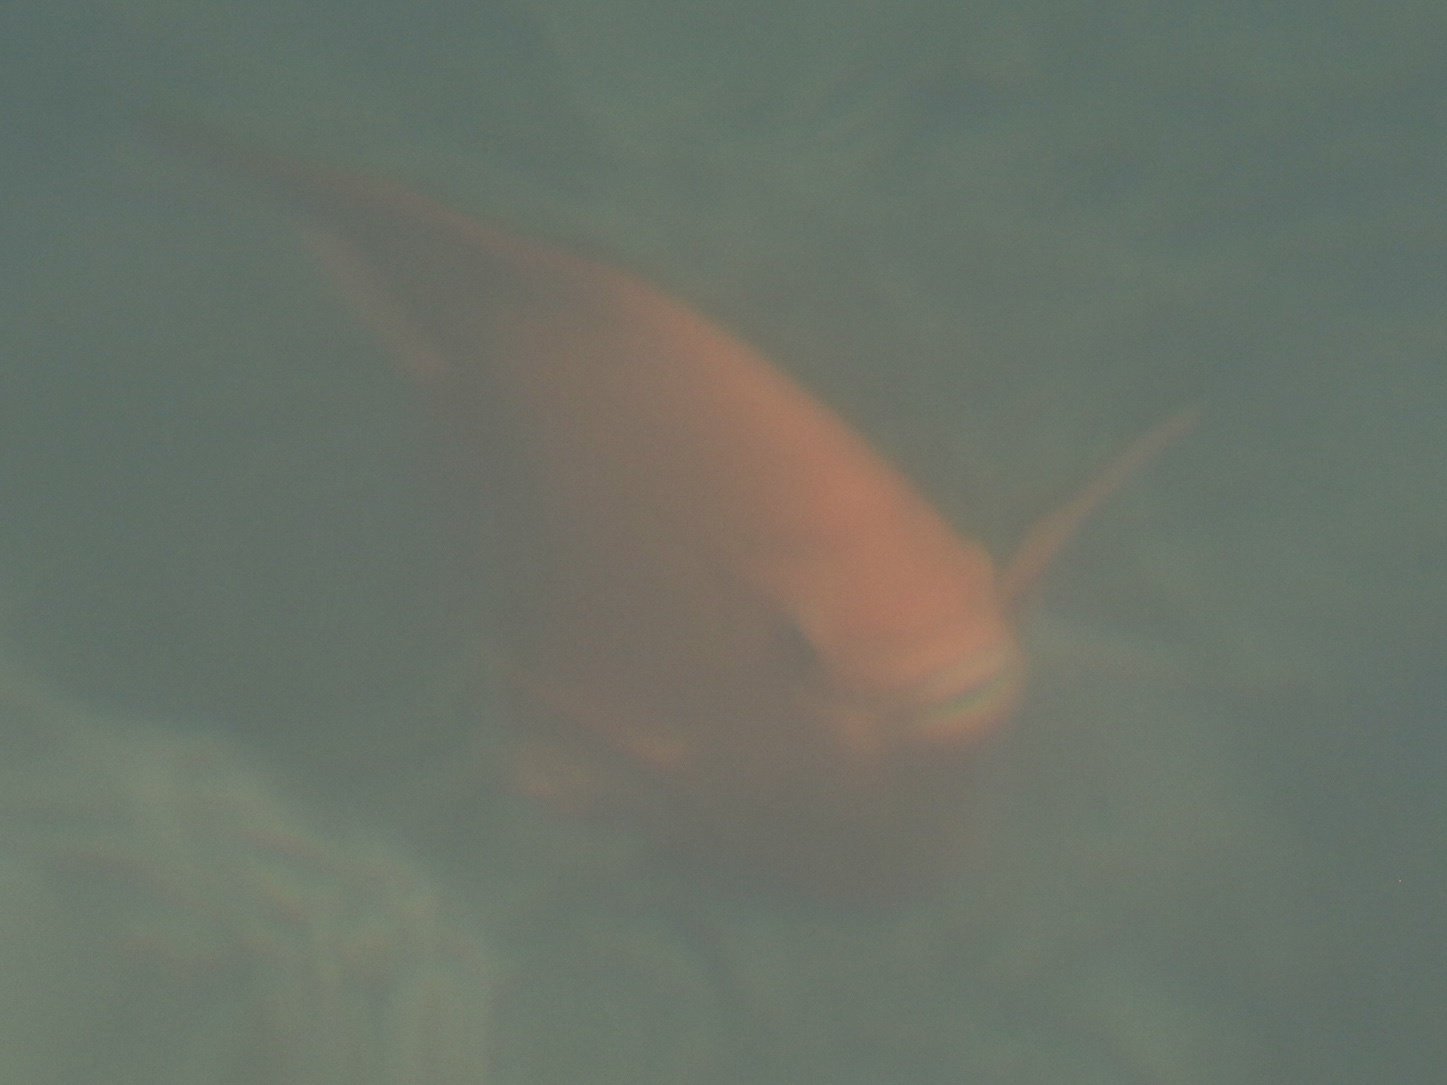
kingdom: Animalia
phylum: Chordata
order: Perciformes
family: Pomacentridae
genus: Hypsypops
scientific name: Hypsypops rubicundus
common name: Garibaldi
